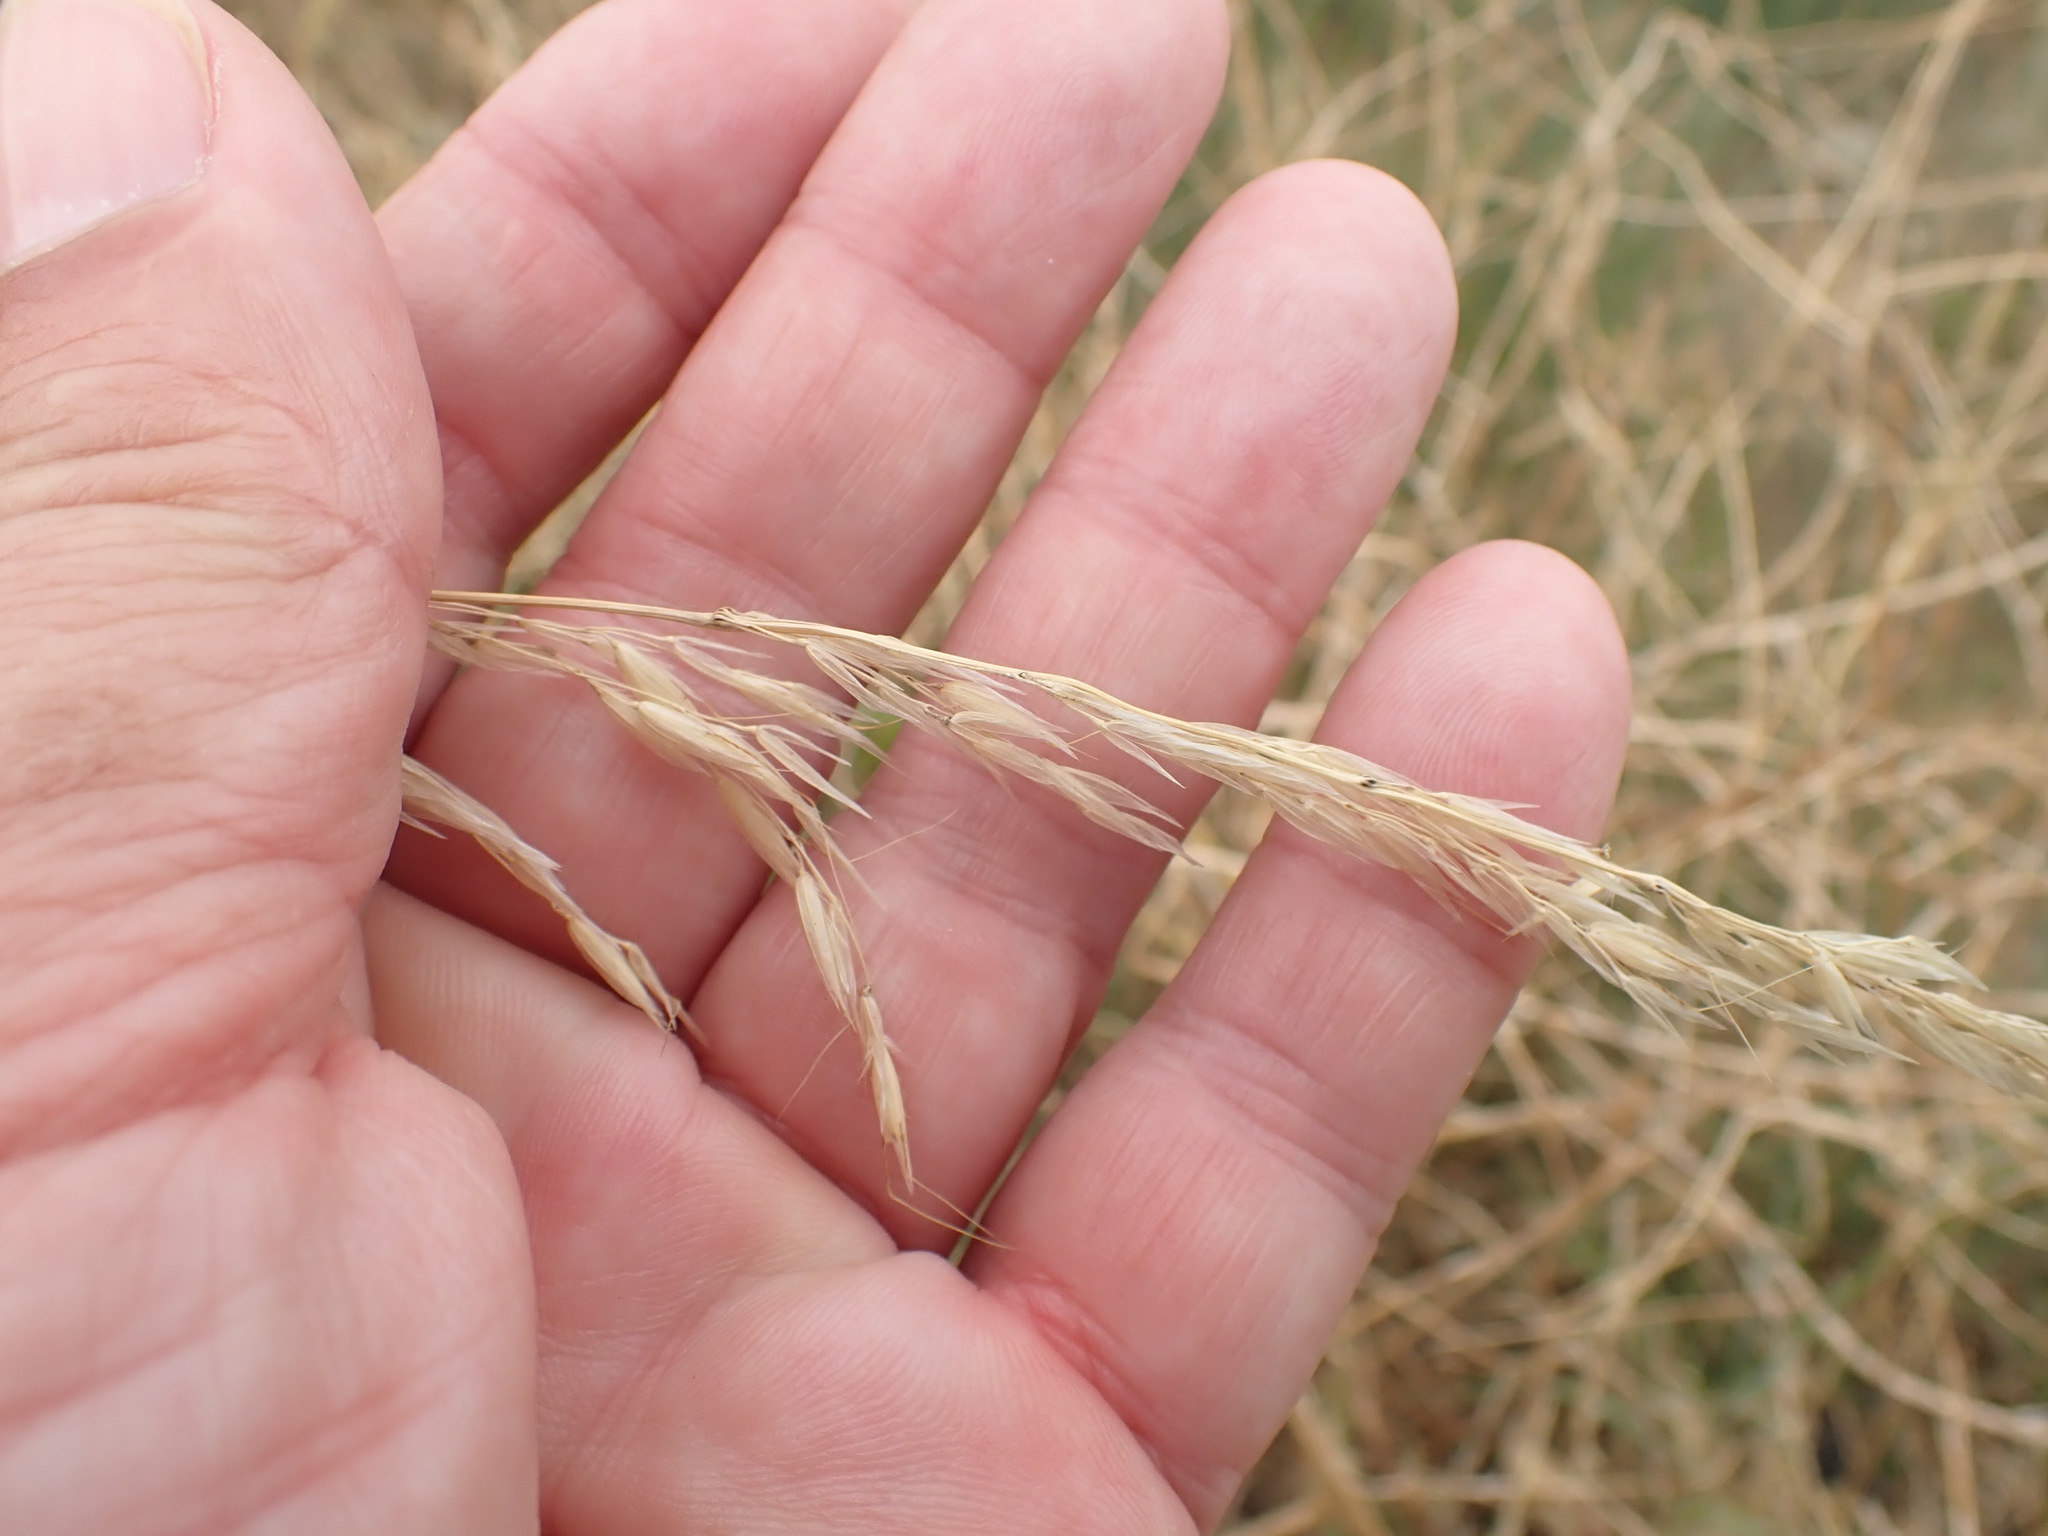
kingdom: Plantae
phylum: Tracheophyta
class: Liliopsida
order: Poales
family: Poaceae
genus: Arrhenatherum
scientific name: Arrhenatherum elatius
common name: Tall oatgrass
